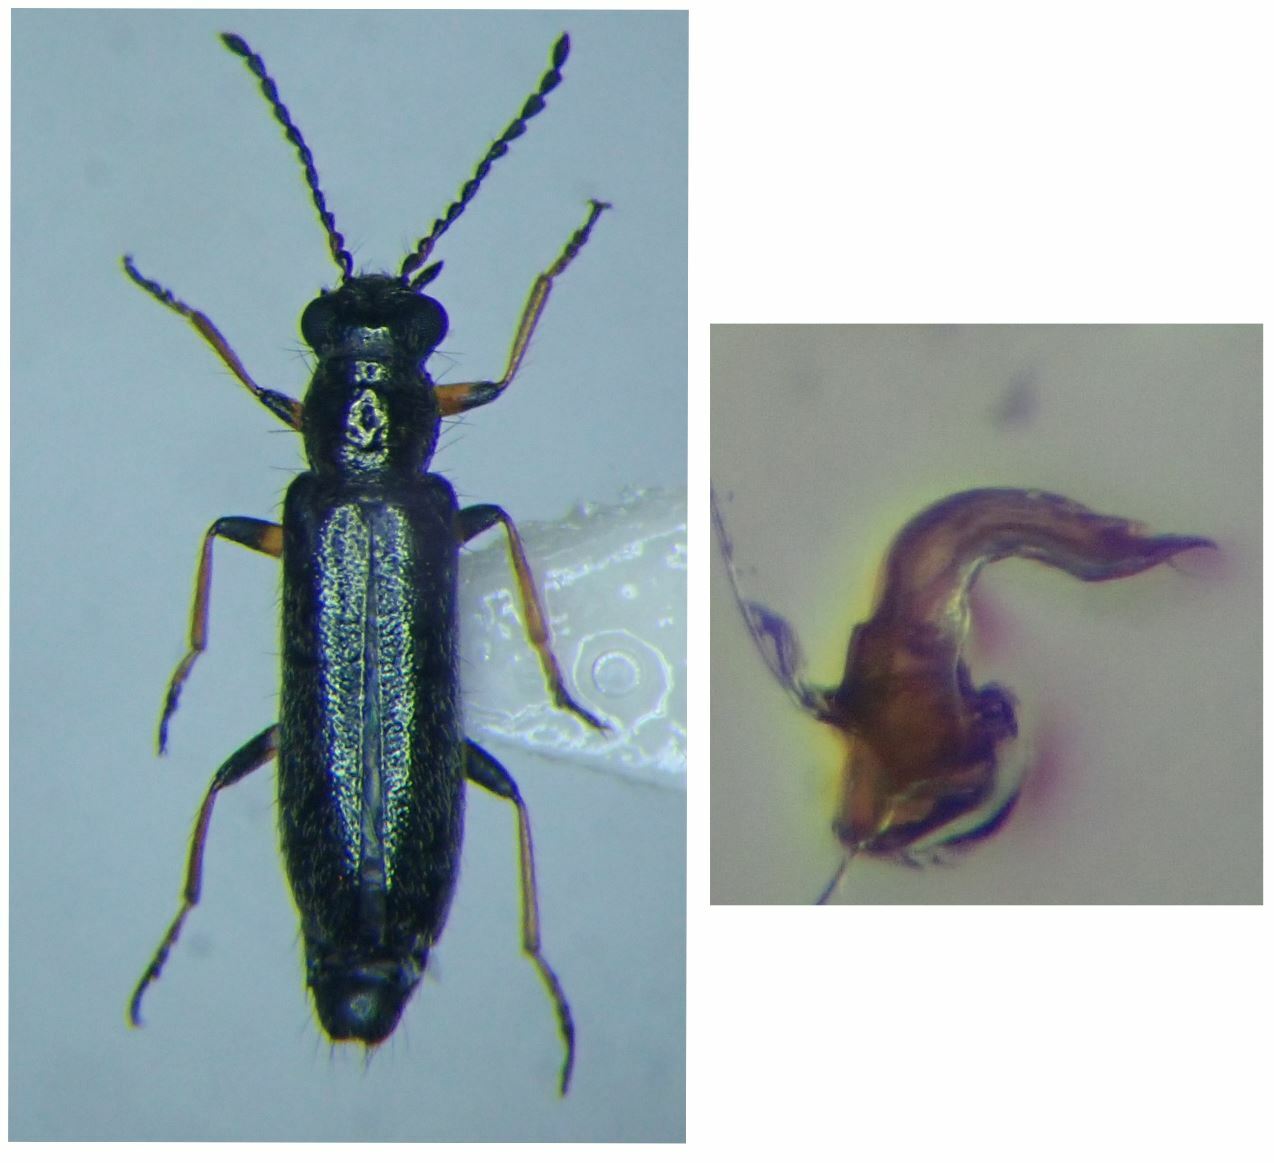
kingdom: Animalia
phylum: Arthropoda
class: Insecta
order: Coleoptera
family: Melyridae
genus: Dasytes
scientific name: Dasytes croceipes
